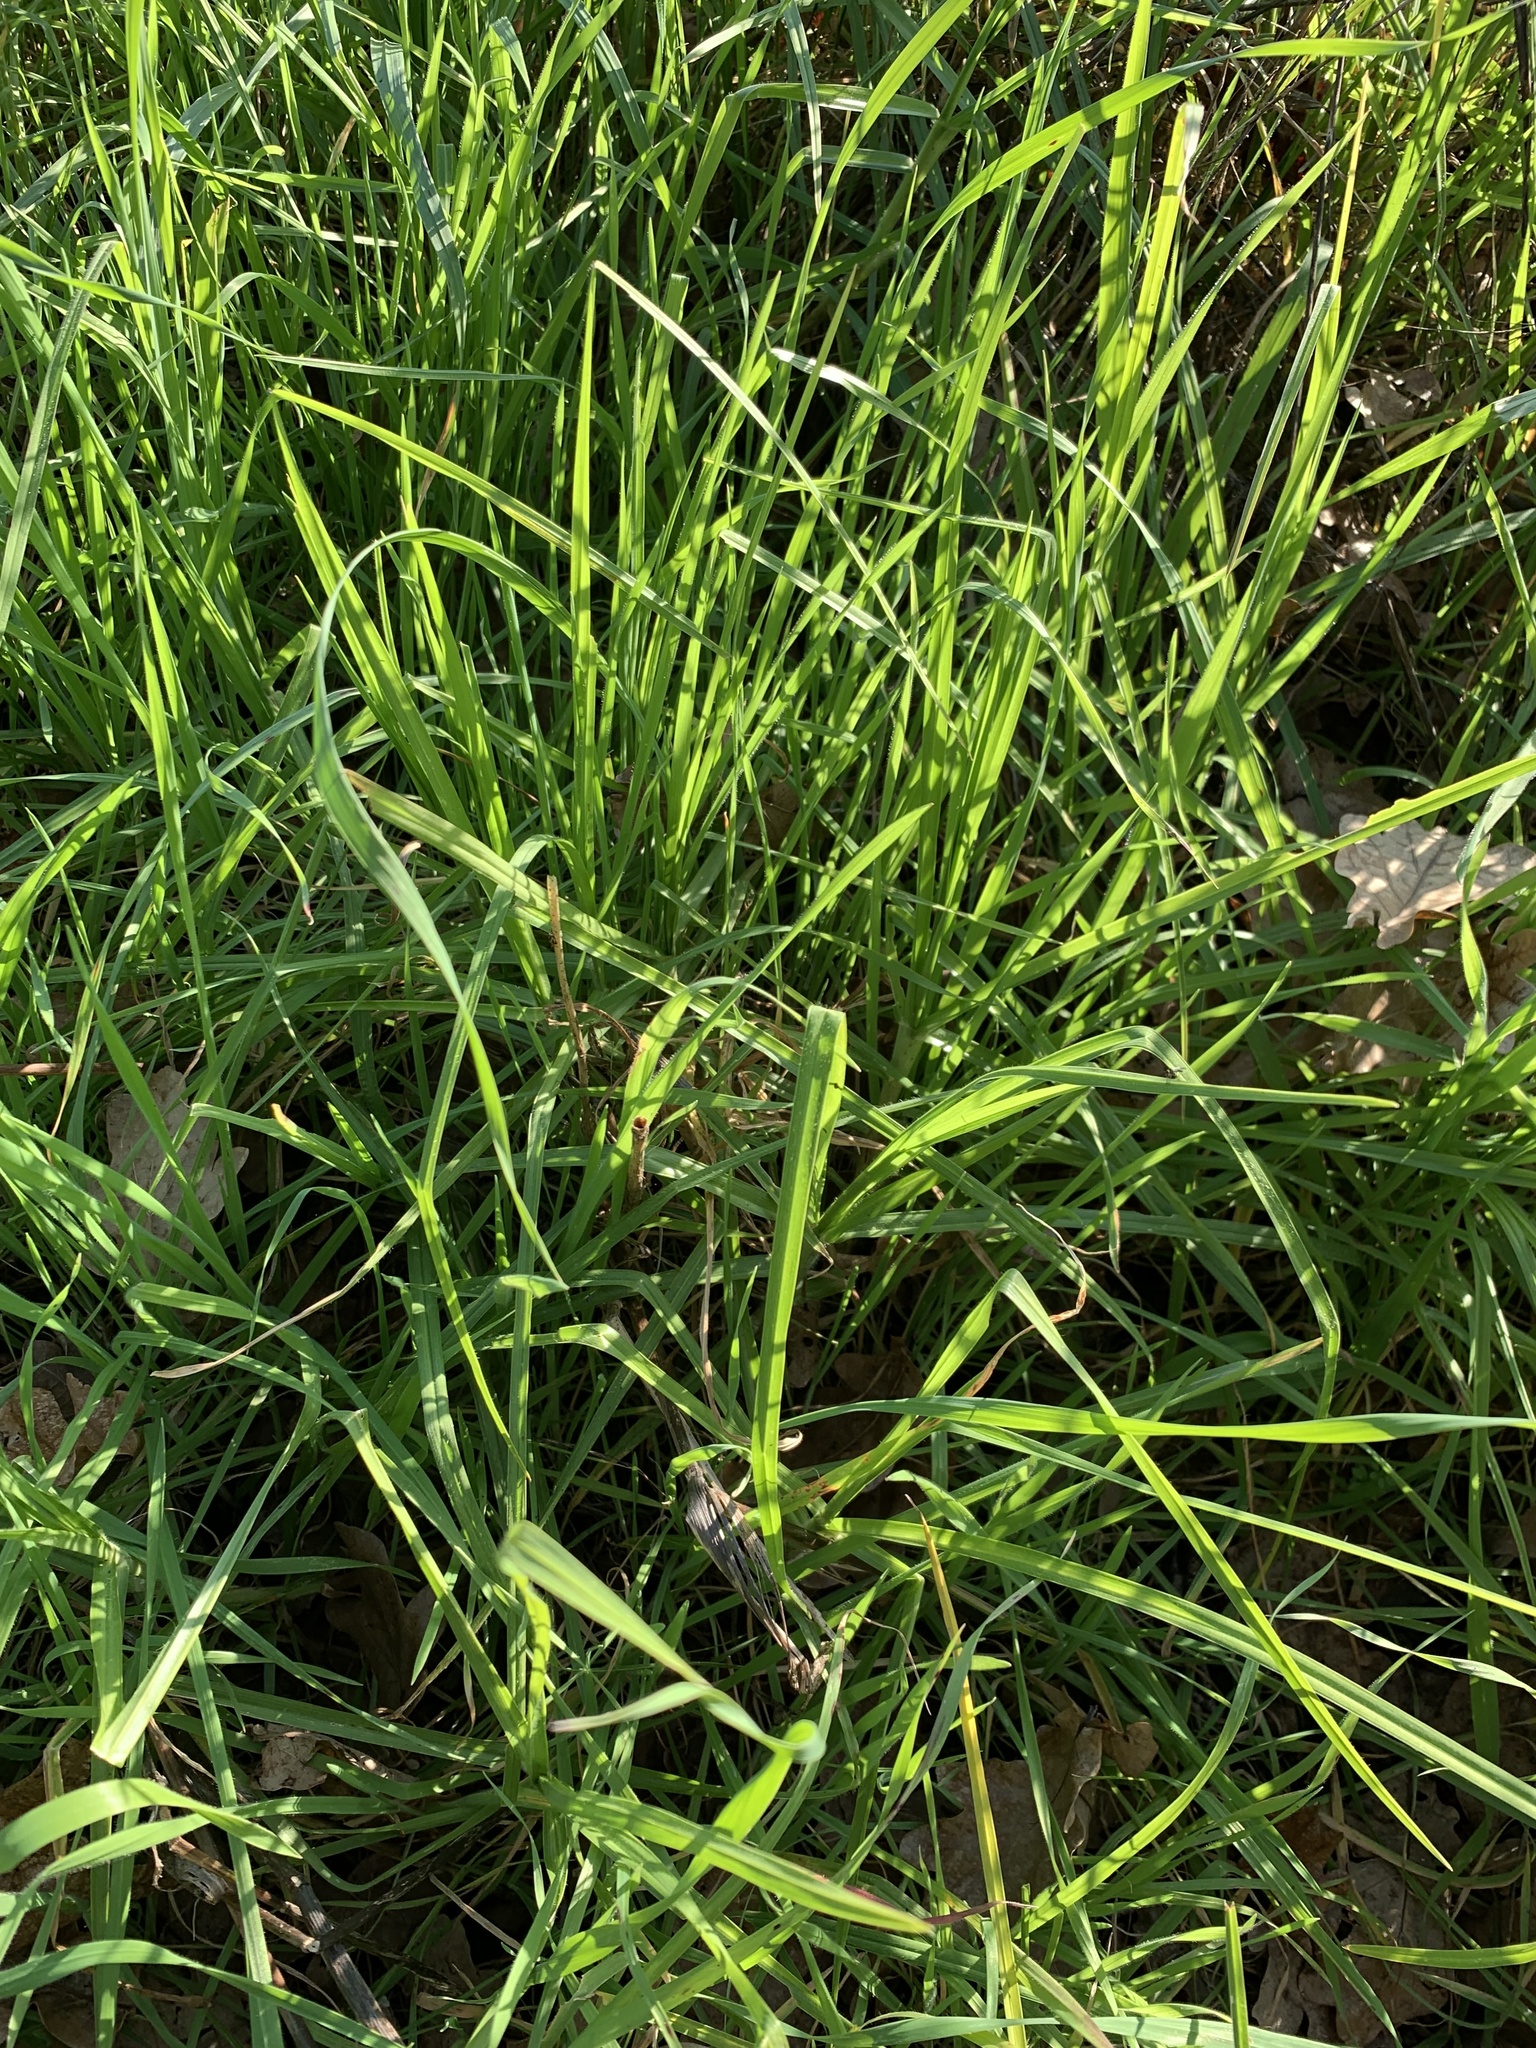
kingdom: Plantae
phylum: Tracheophyta
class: Liliopsida
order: Poales
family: Poaceae
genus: Cenchrus
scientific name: Cenchrus clandestinus
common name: Kikuyugrass
